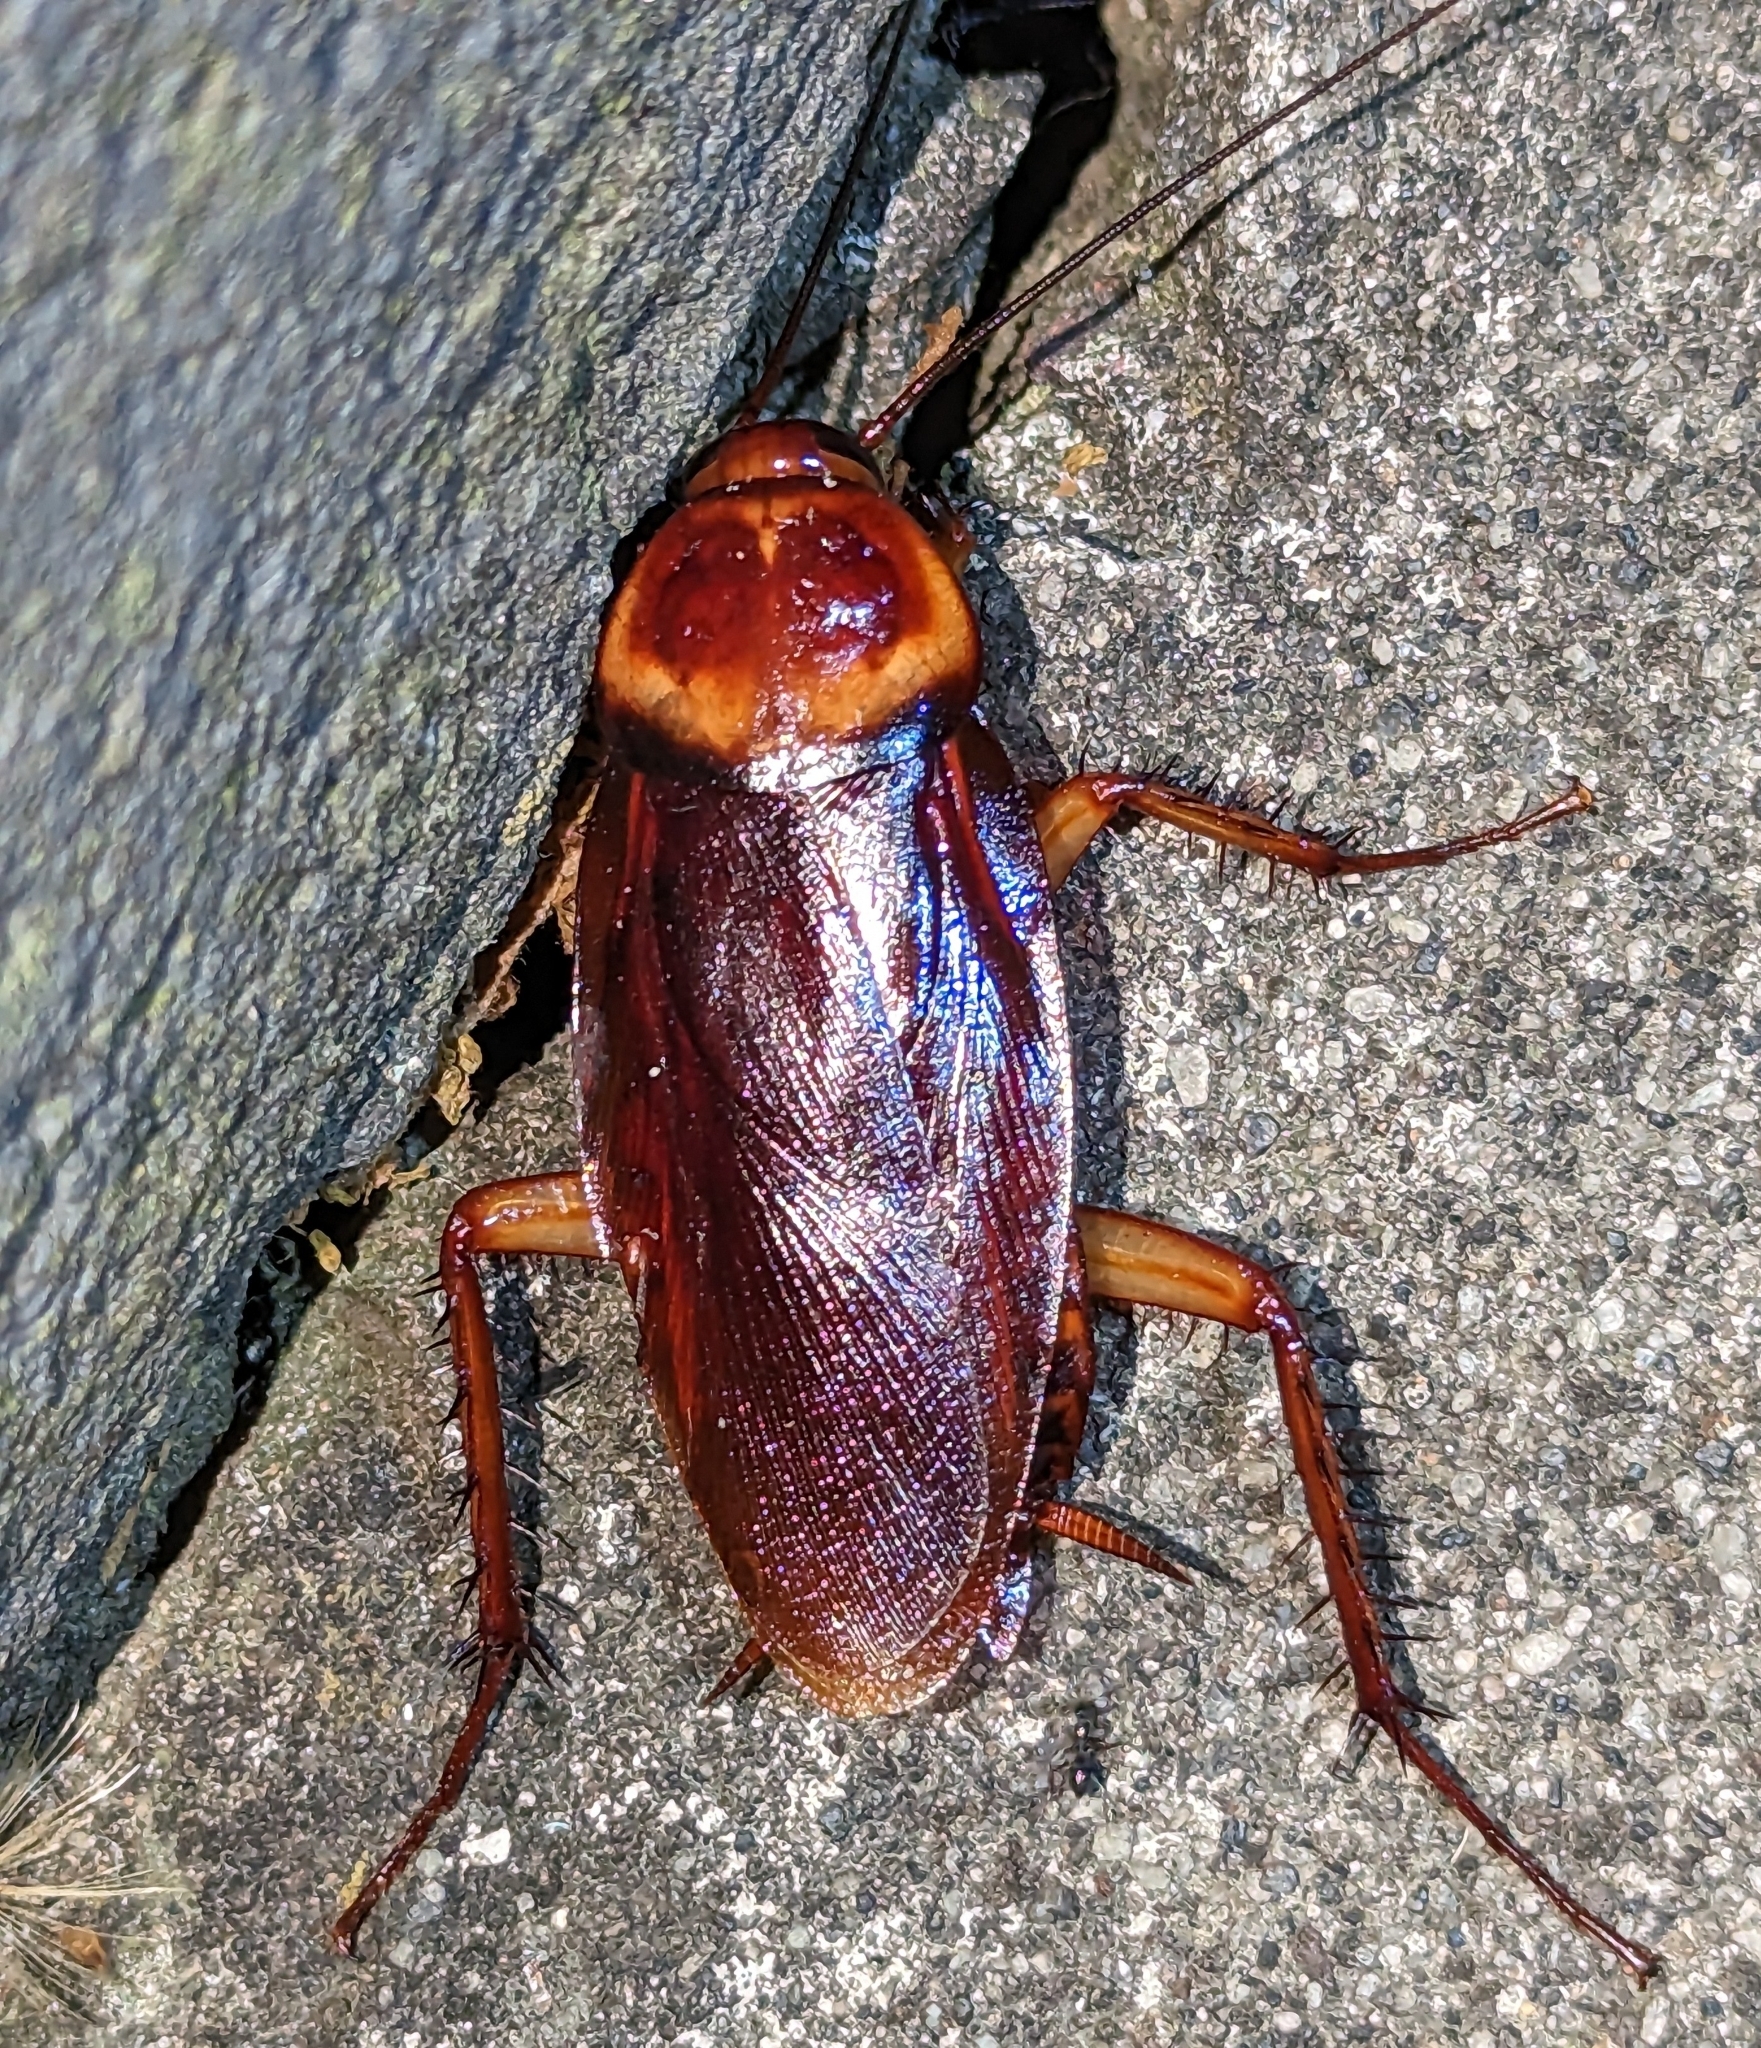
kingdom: Animalia
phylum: Arthropoda
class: Insecta
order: Blattodea
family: Blattidae
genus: Periplaneta
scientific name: Periplaneta americana
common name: American cockroach
